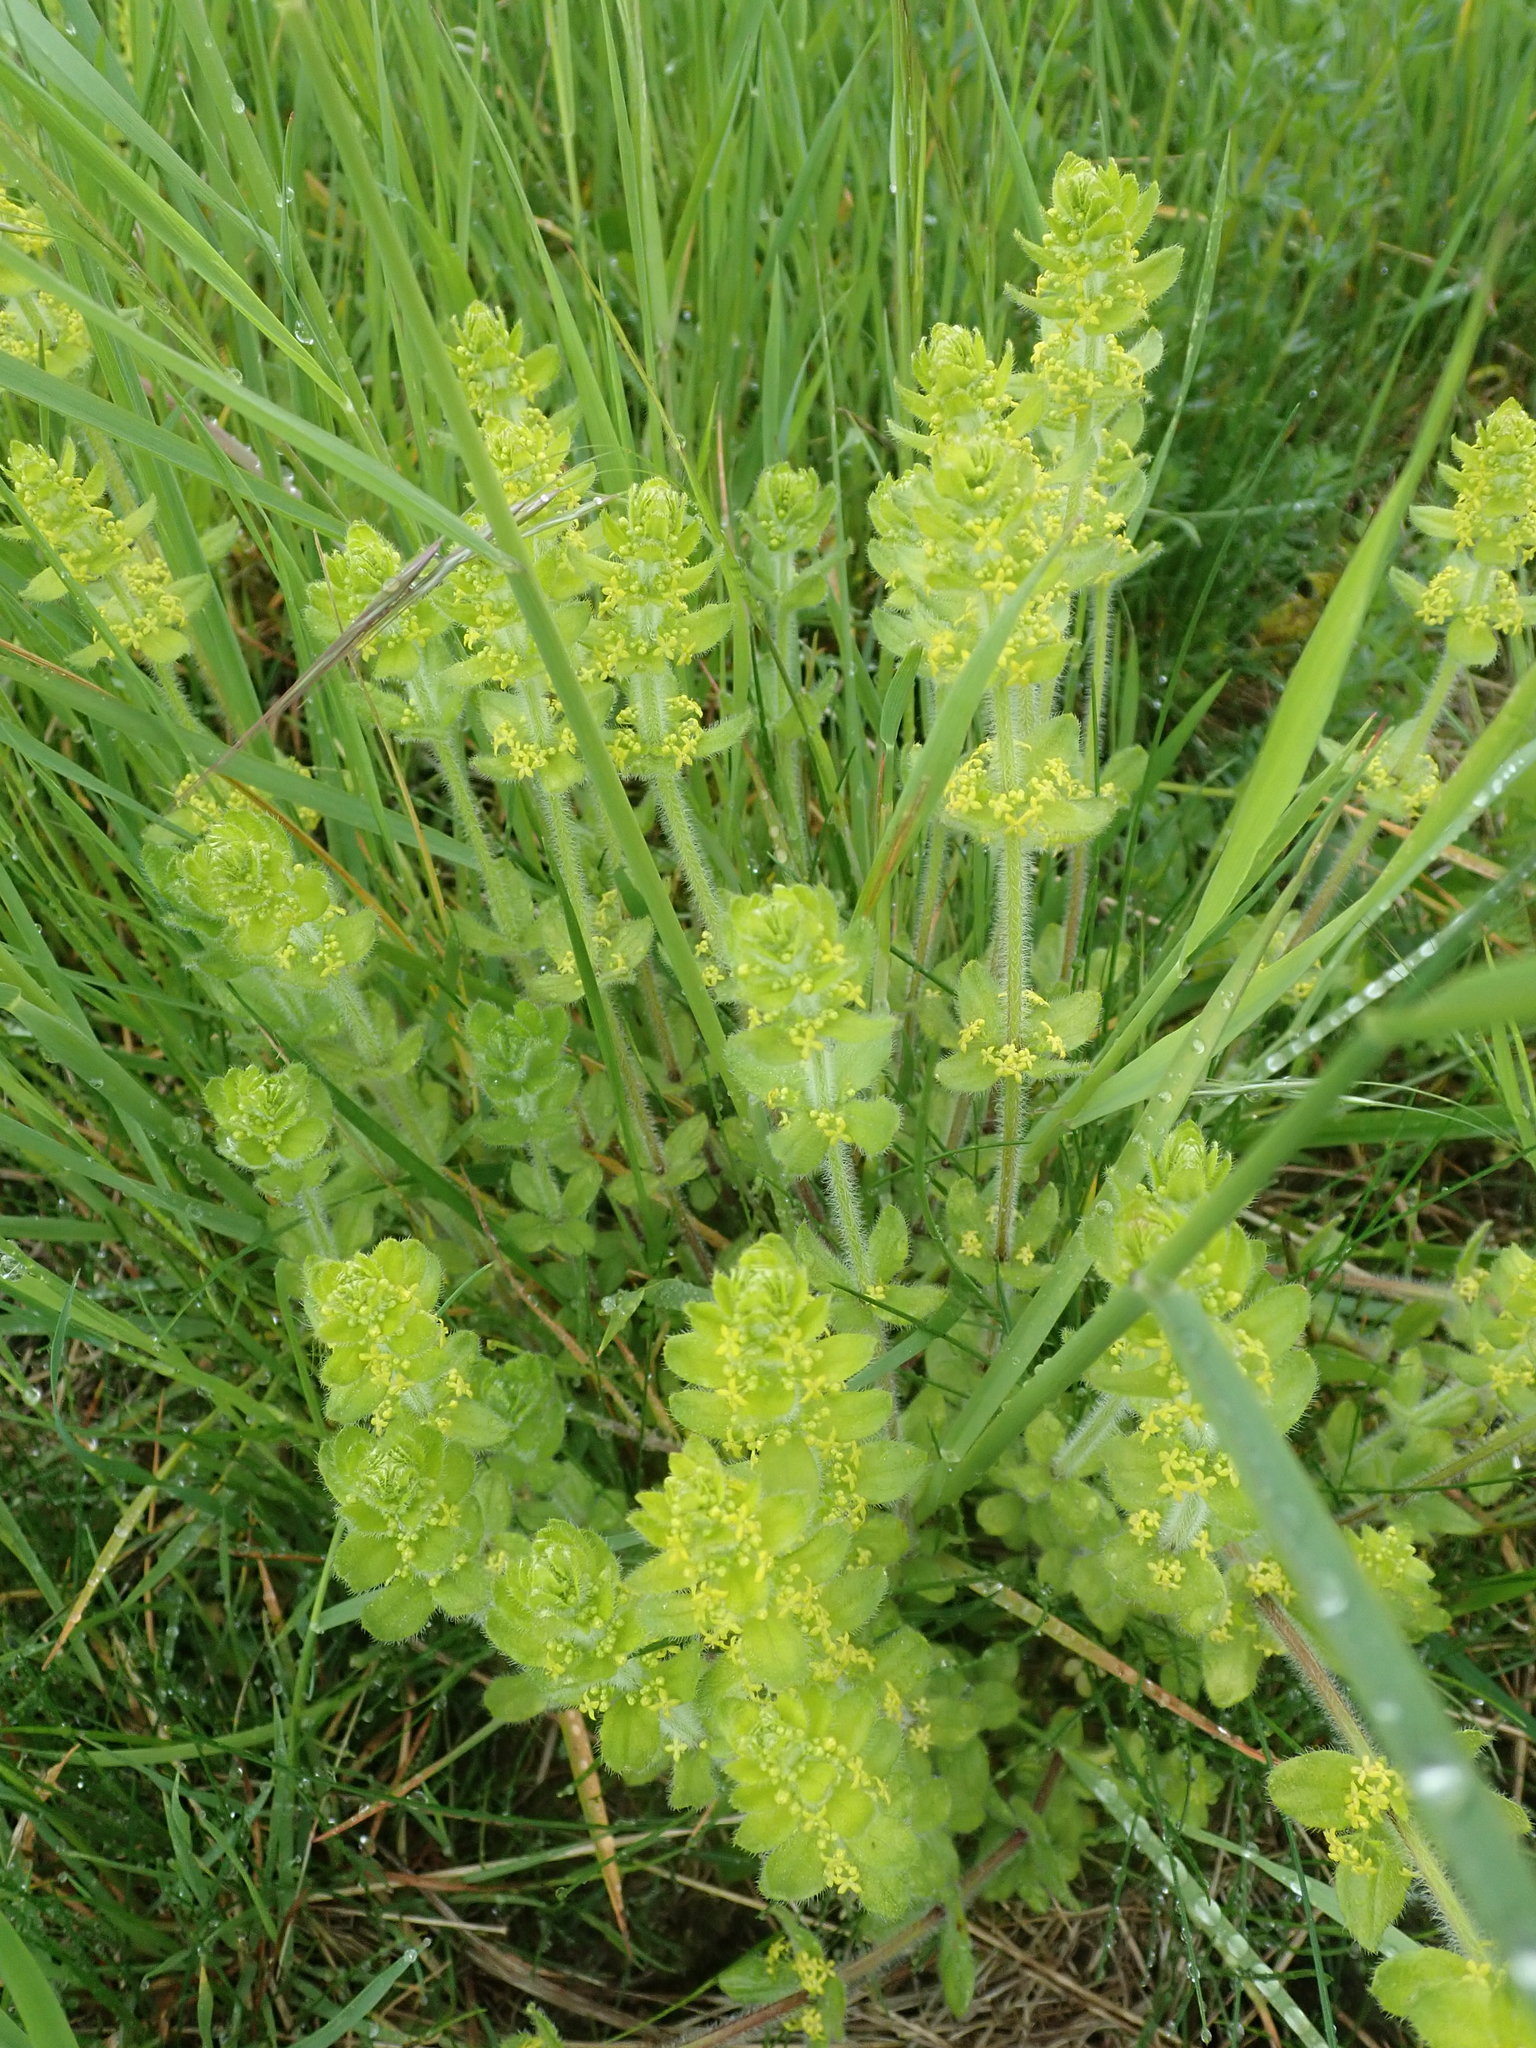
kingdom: Plantae
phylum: Tracheophyta
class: Magnoliopsida
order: Gentianales
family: Rubiaceae
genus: Cruciata
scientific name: Cruciata laevipes
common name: Crosswort
